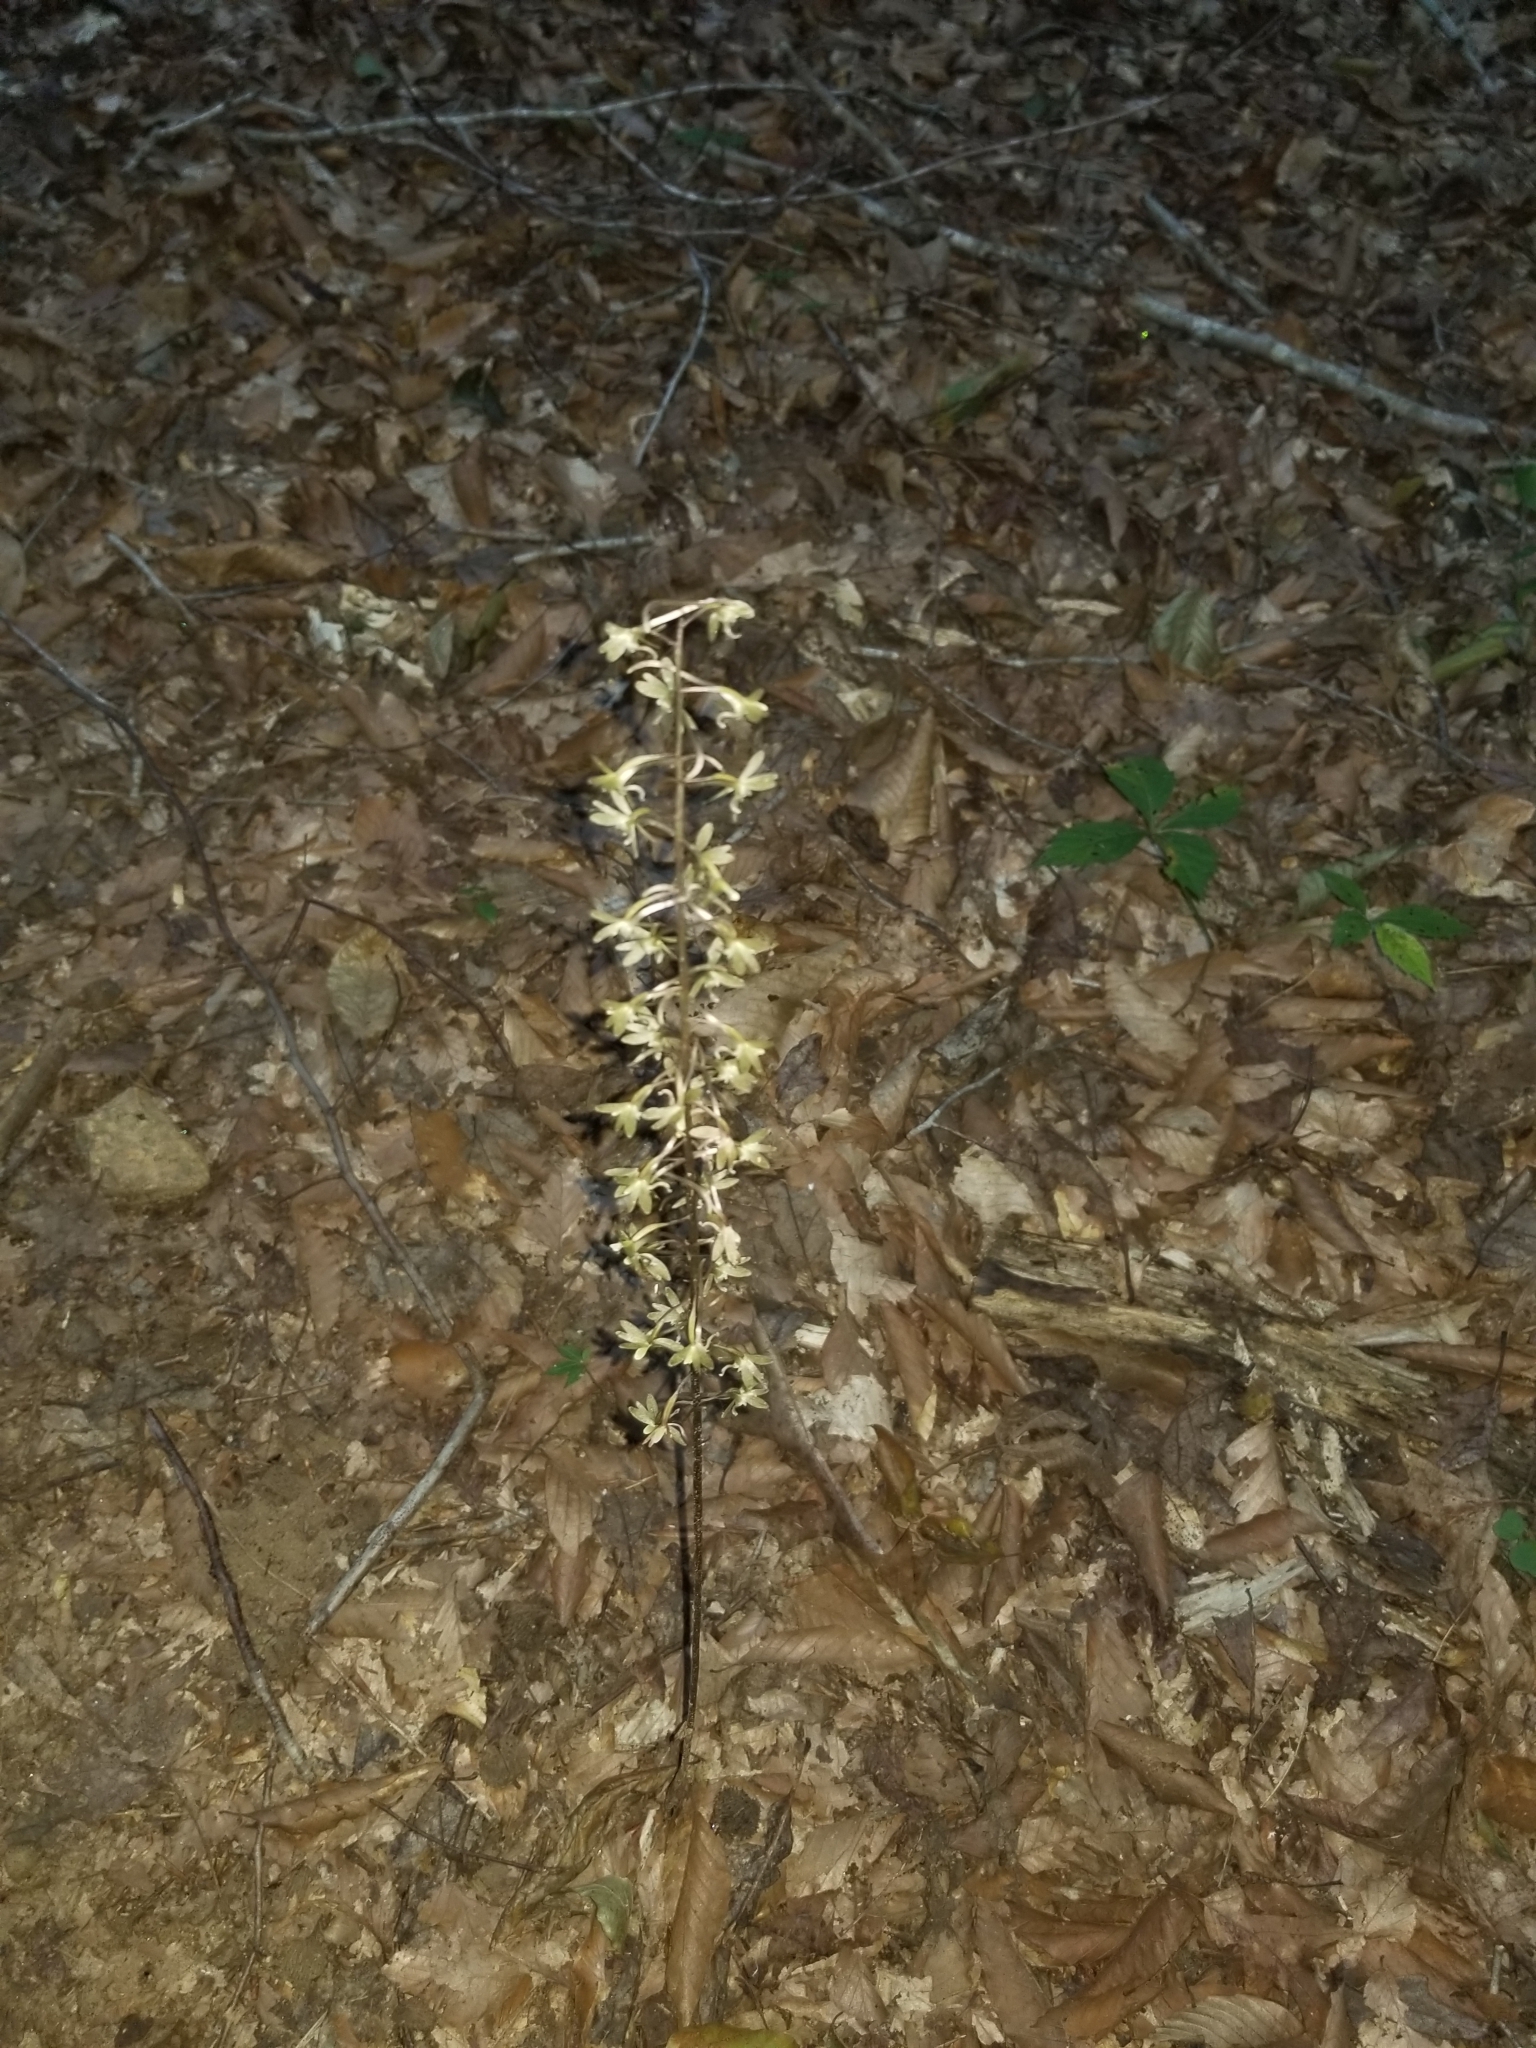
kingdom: Plantae
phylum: Tracheophyta
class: Liliopsida
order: Asparagales
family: Orchidaceae
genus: Tipularia
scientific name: Tipularia discolor
